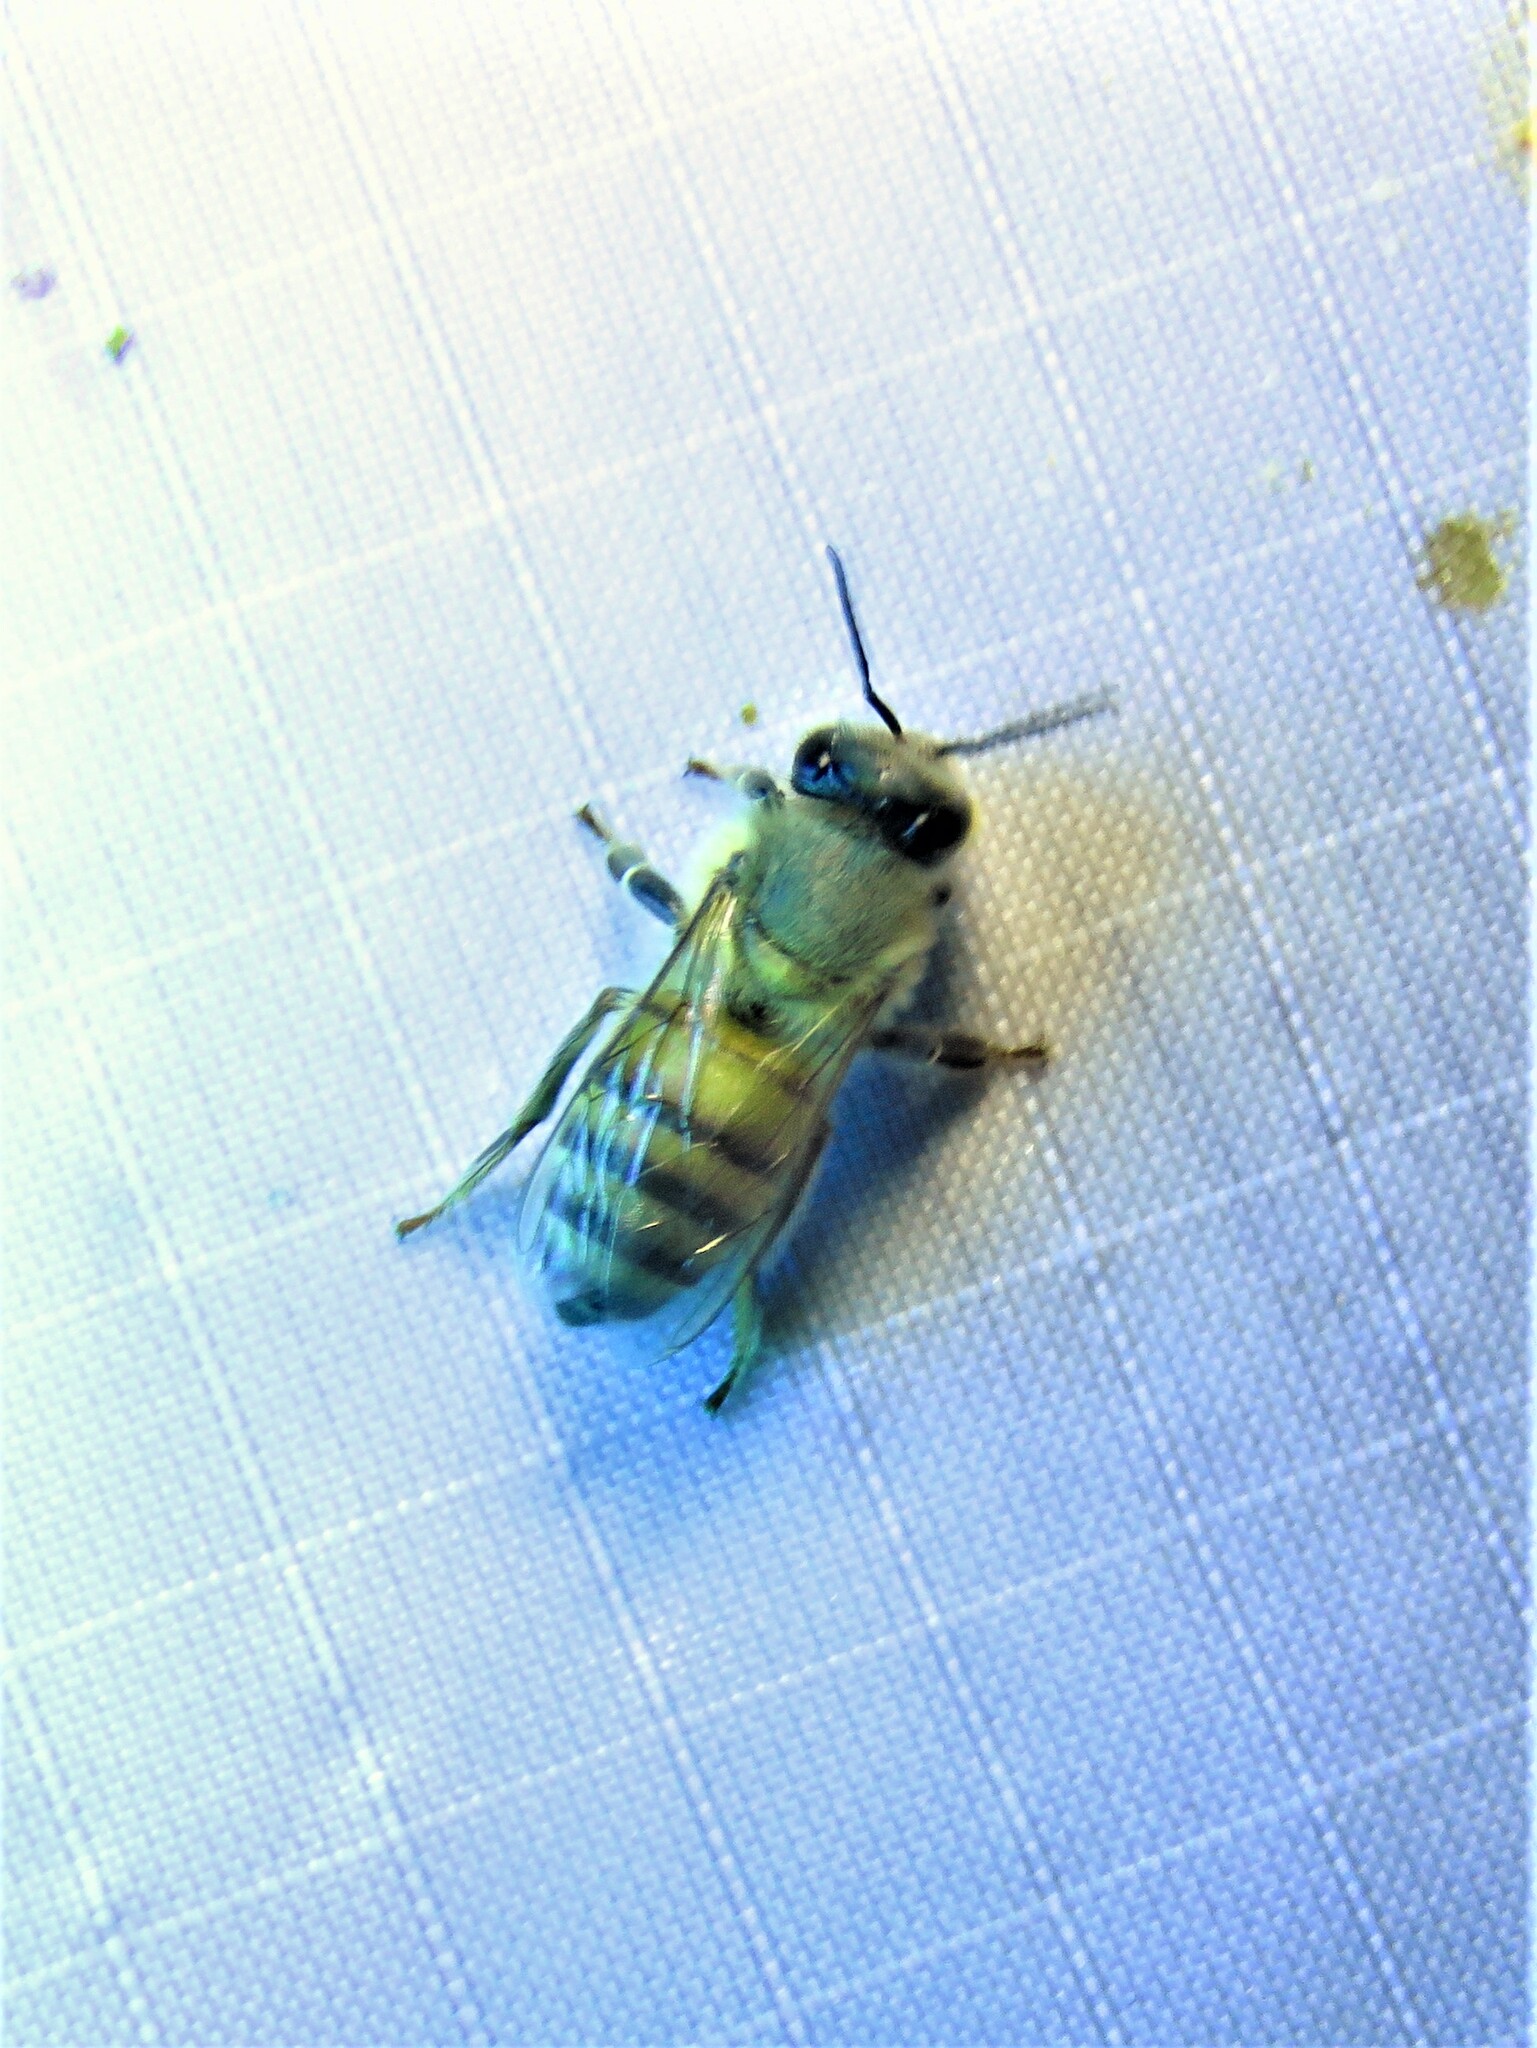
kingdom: Animalia
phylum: Arthropoda
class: Insecta
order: Hymenoptera
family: Apidae
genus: Apis
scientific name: Apis mellifera
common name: Honey bee
